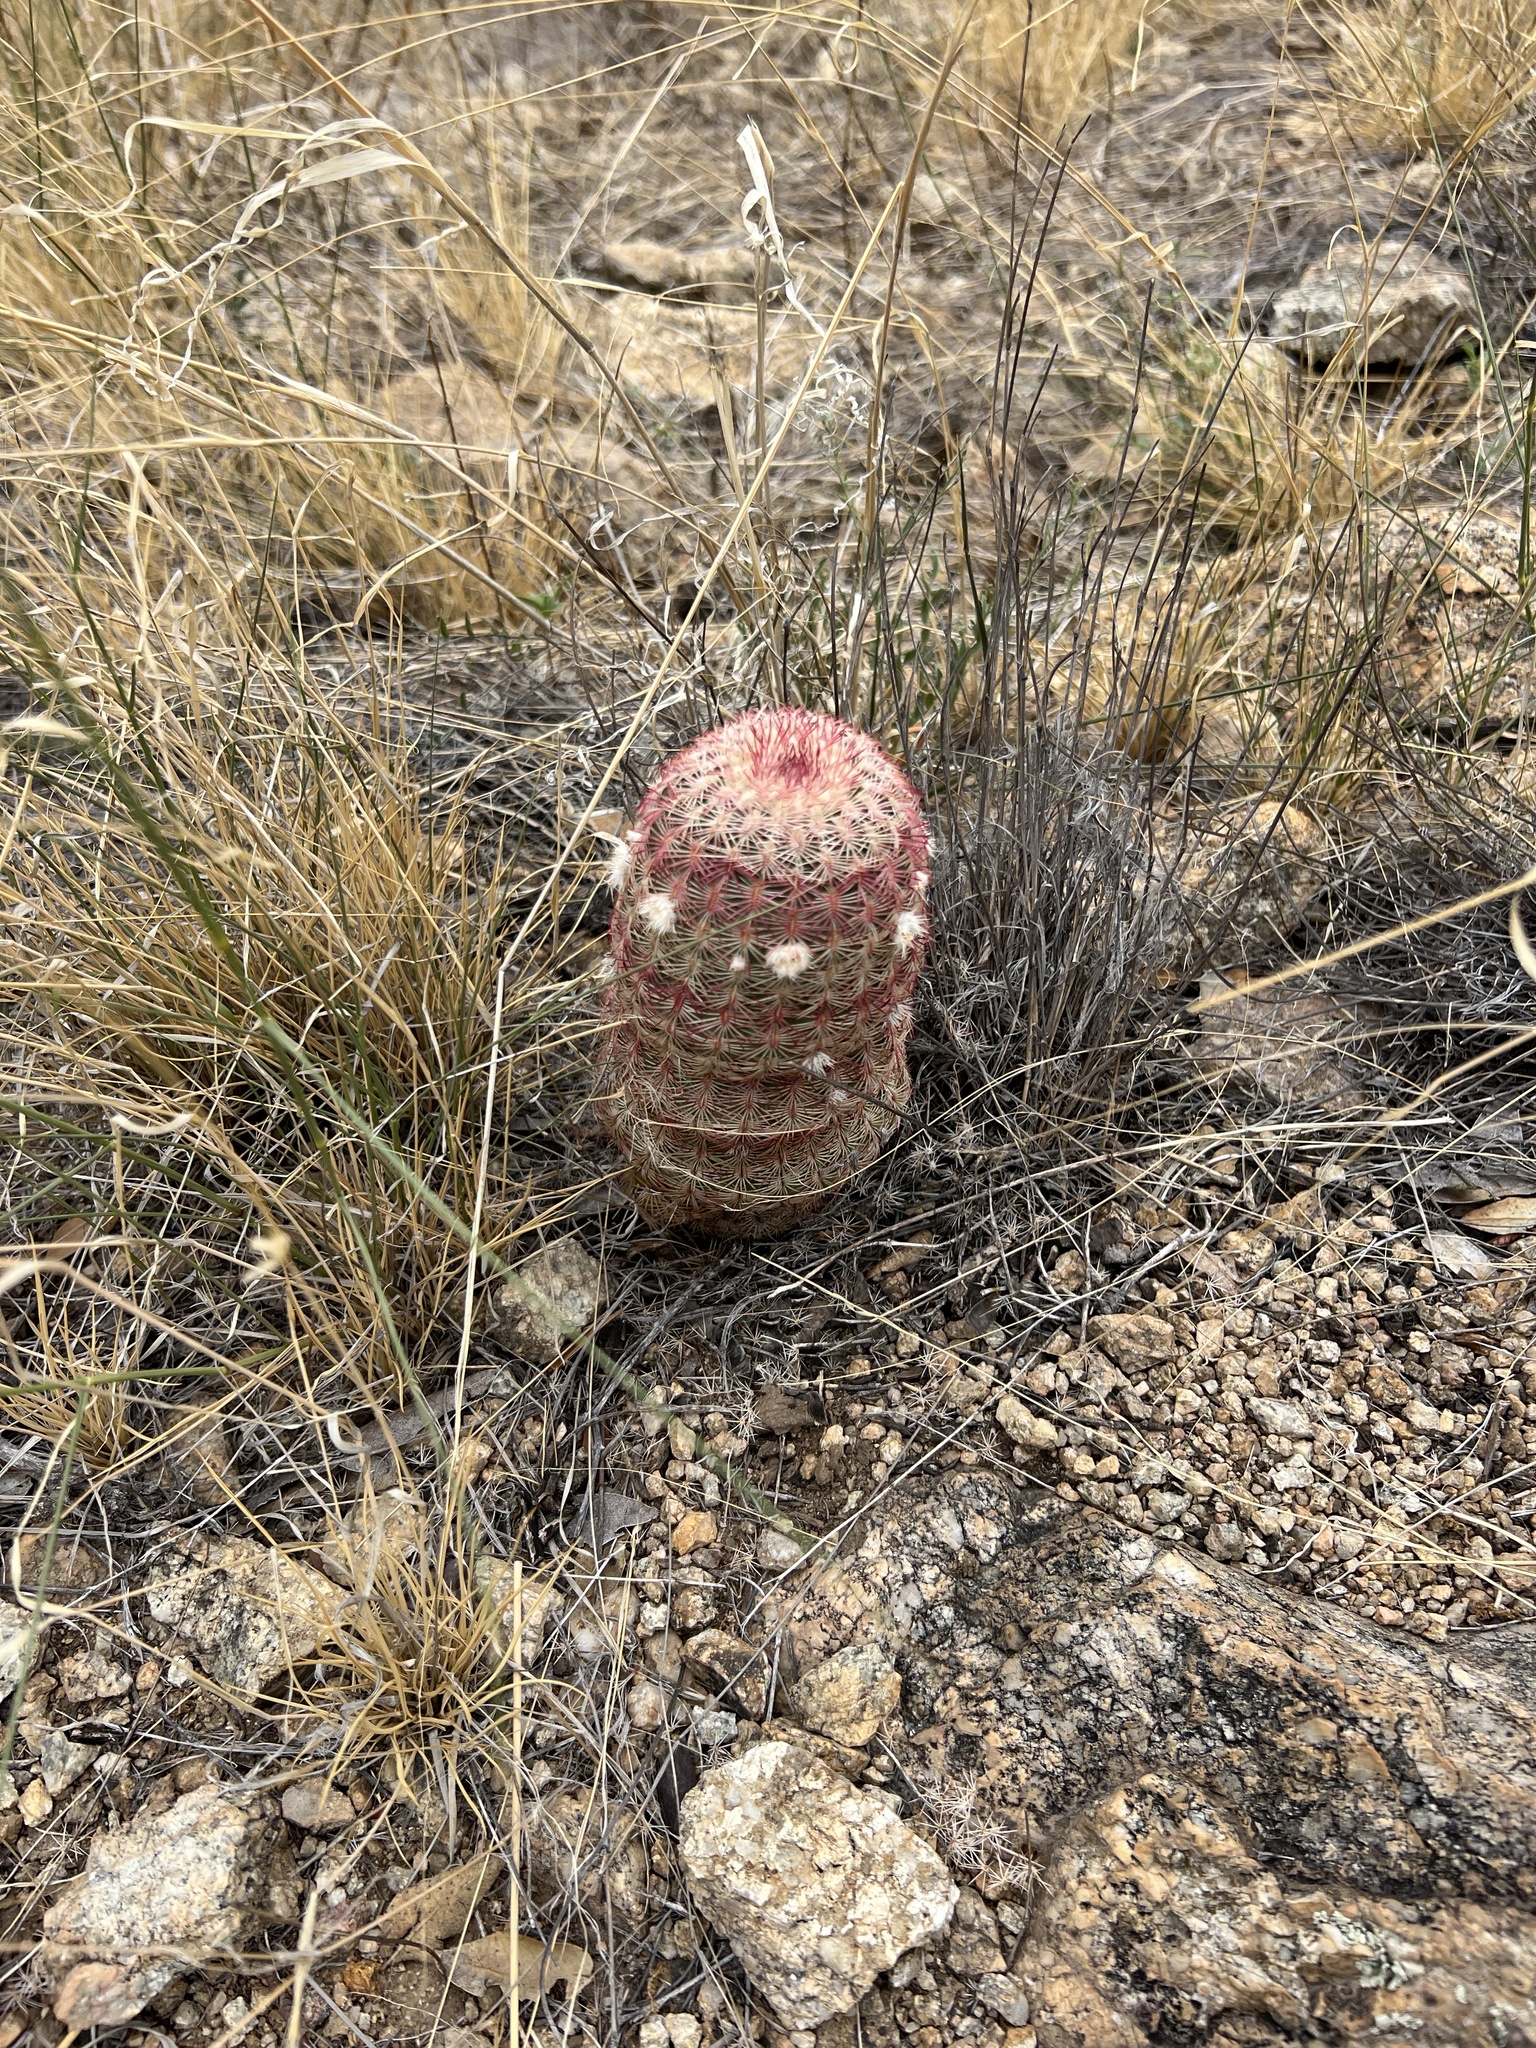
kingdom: Plantae
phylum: Tracheophyta
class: Magnoliopsida
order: Caryophyllales
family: Cactaceae
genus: Echinocereus
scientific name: Echinocereus rigidissimus
